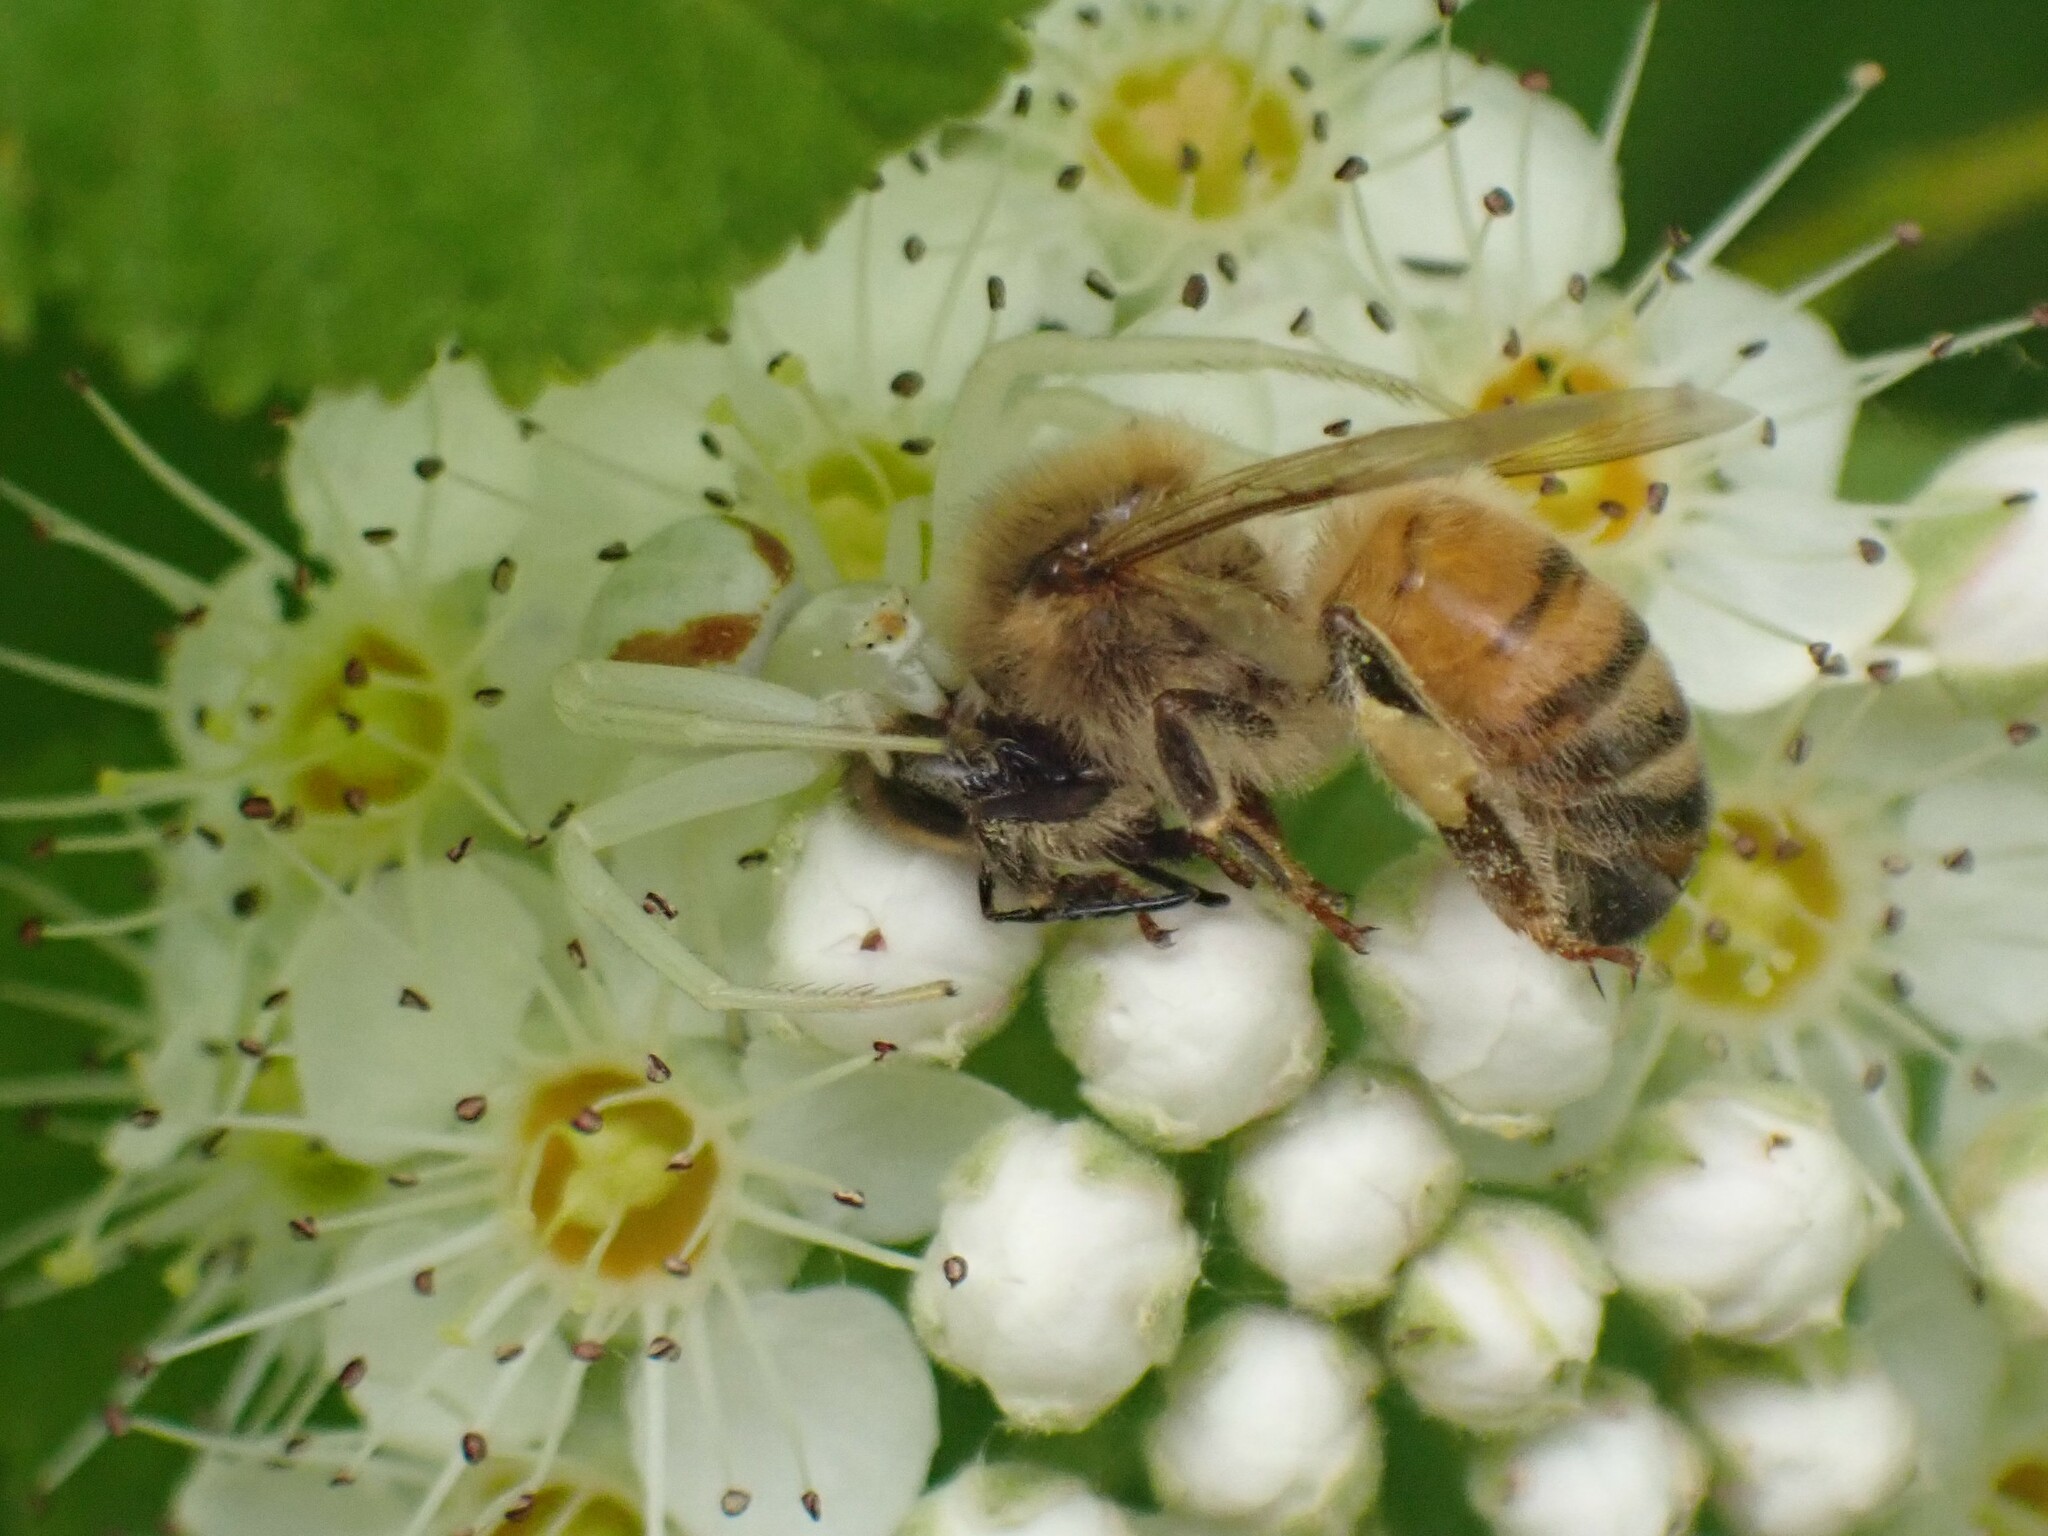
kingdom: Animalia
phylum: Arthropoda
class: Arachnida
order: Araneae
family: Thomisidae
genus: Misumena
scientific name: Misumena vatia
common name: Goldenrod crab spider
